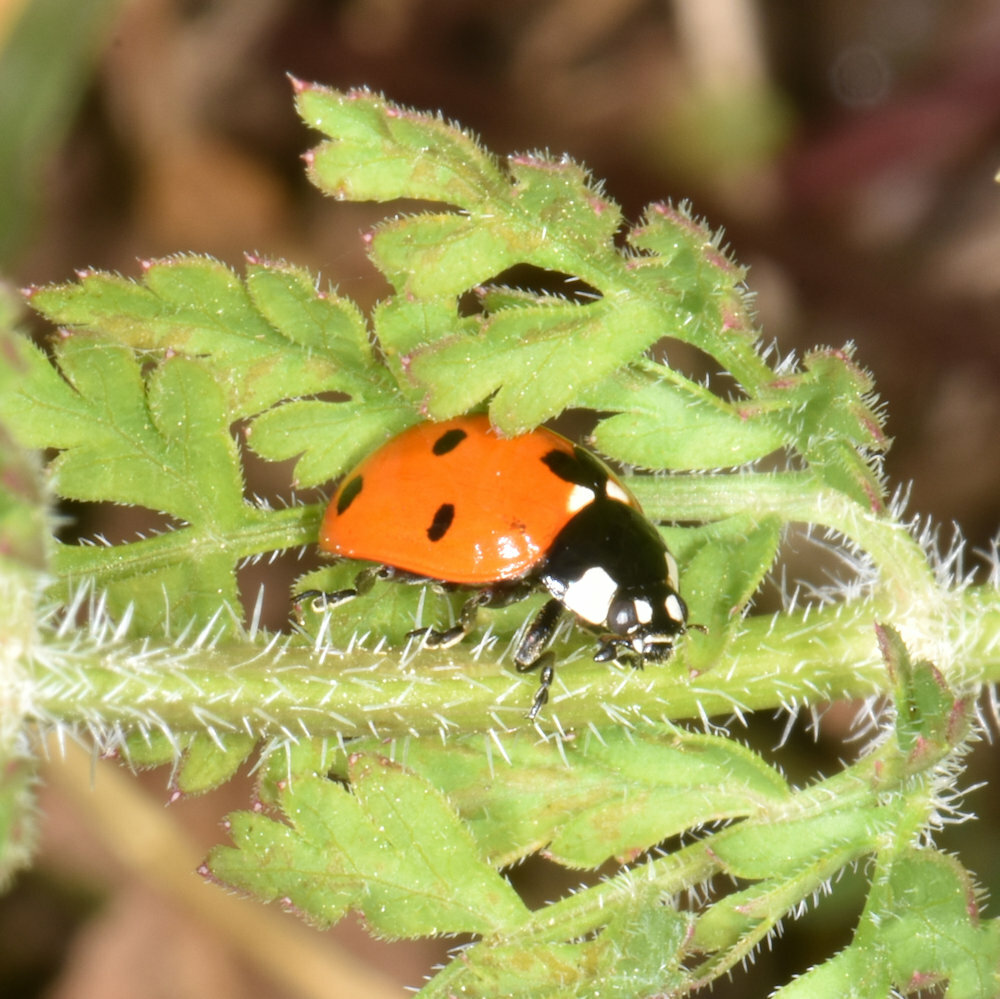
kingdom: Animalia
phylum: Arthropoda
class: Insecta
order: Coleoptera
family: Coccinellidae
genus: Coccinella
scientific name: Coccinella septempunctata
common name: Sevenspotted lady beetle
